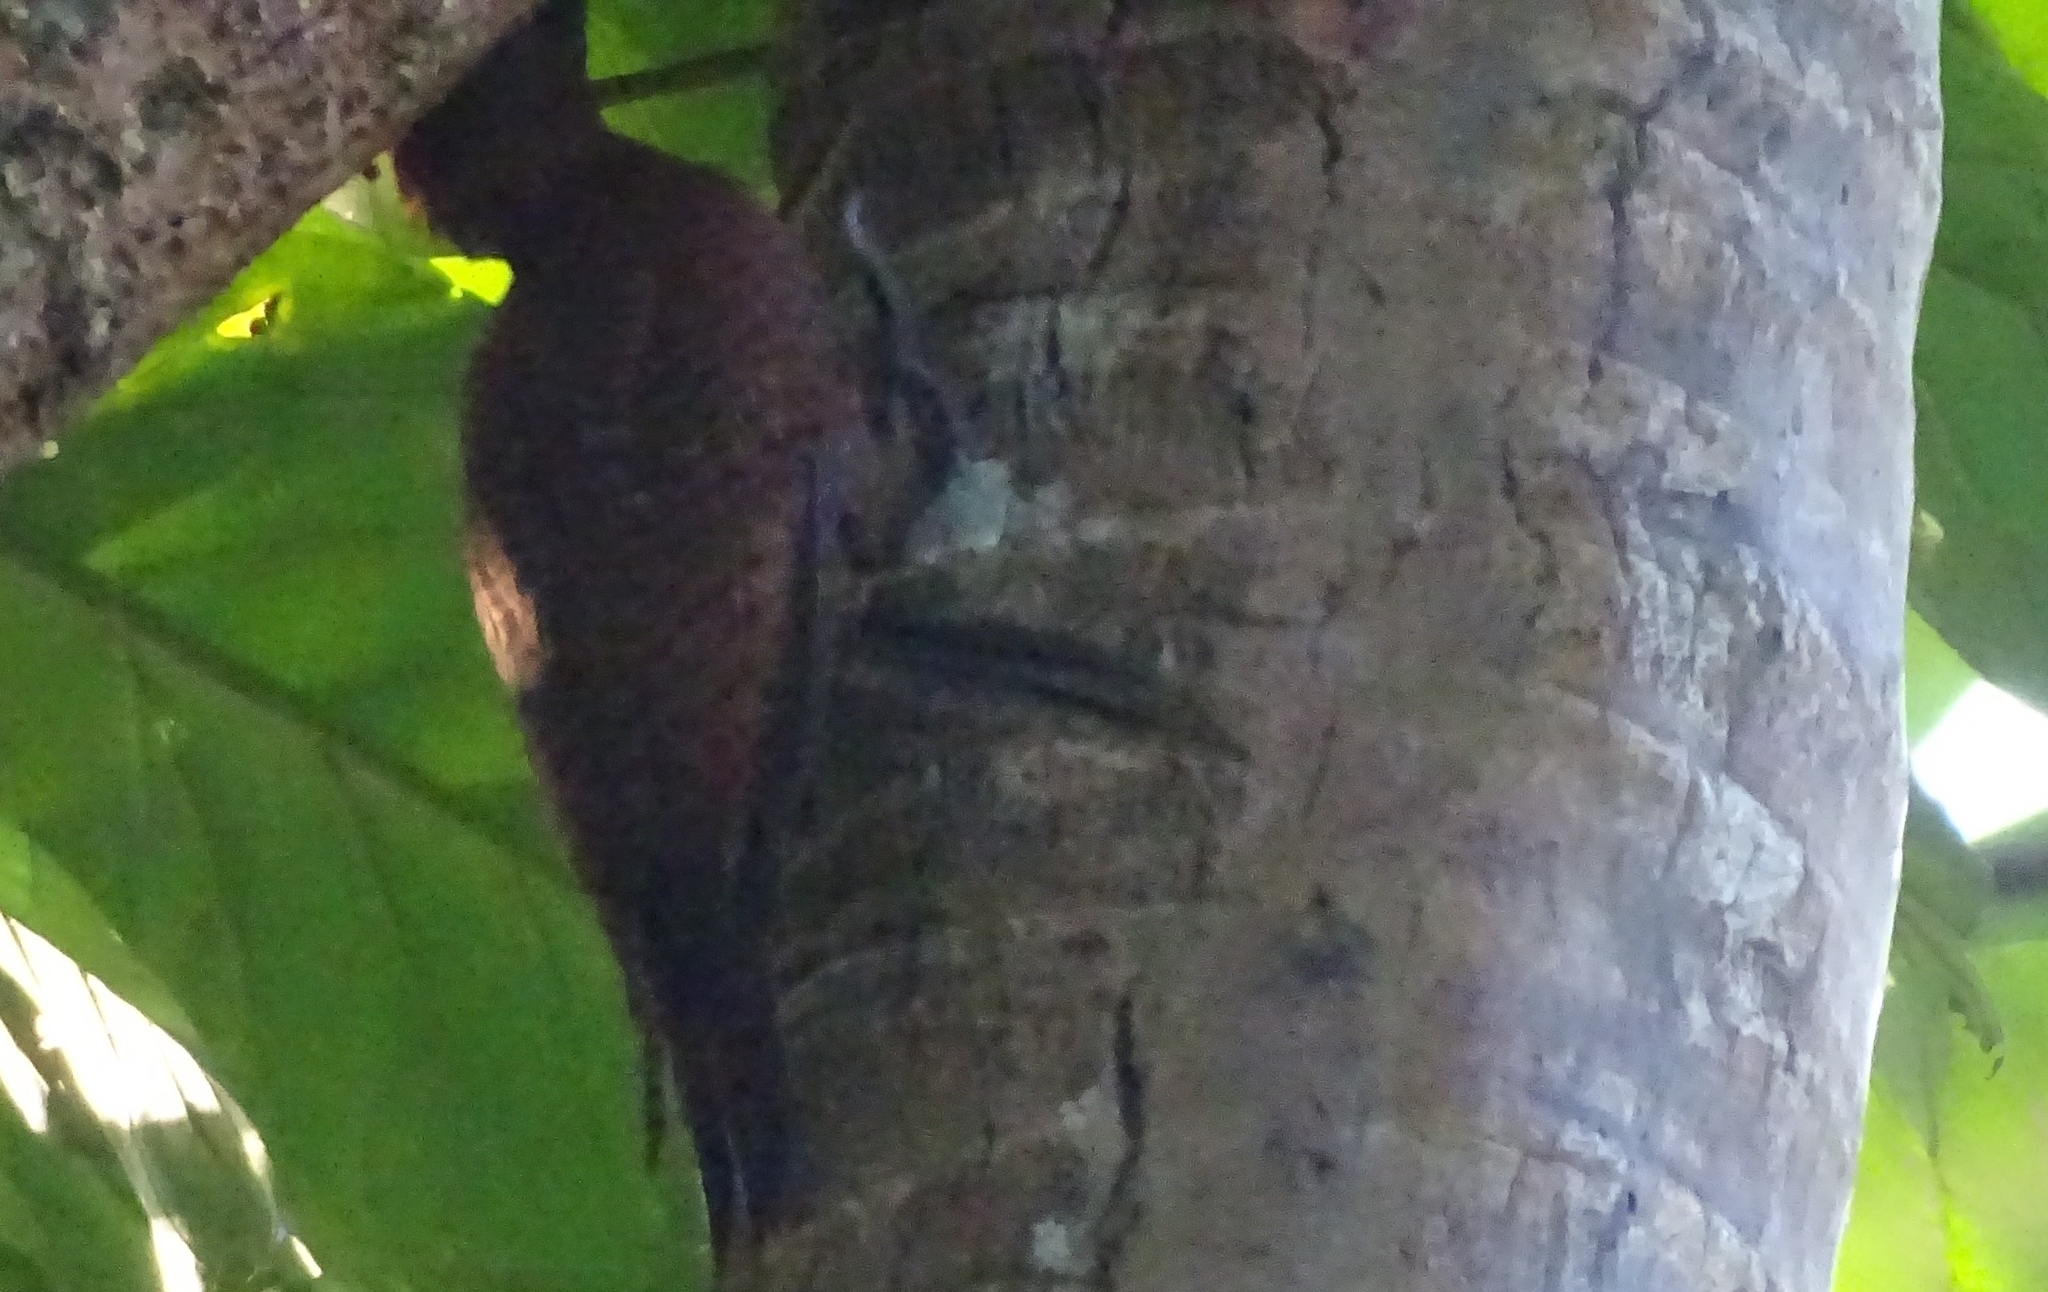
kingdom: Animalia
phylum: Chordata
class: Aves
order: Piciformes
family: Picidae
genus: Micropternus
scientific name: Micropternus brachyurus
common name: Rufous woodpecker
